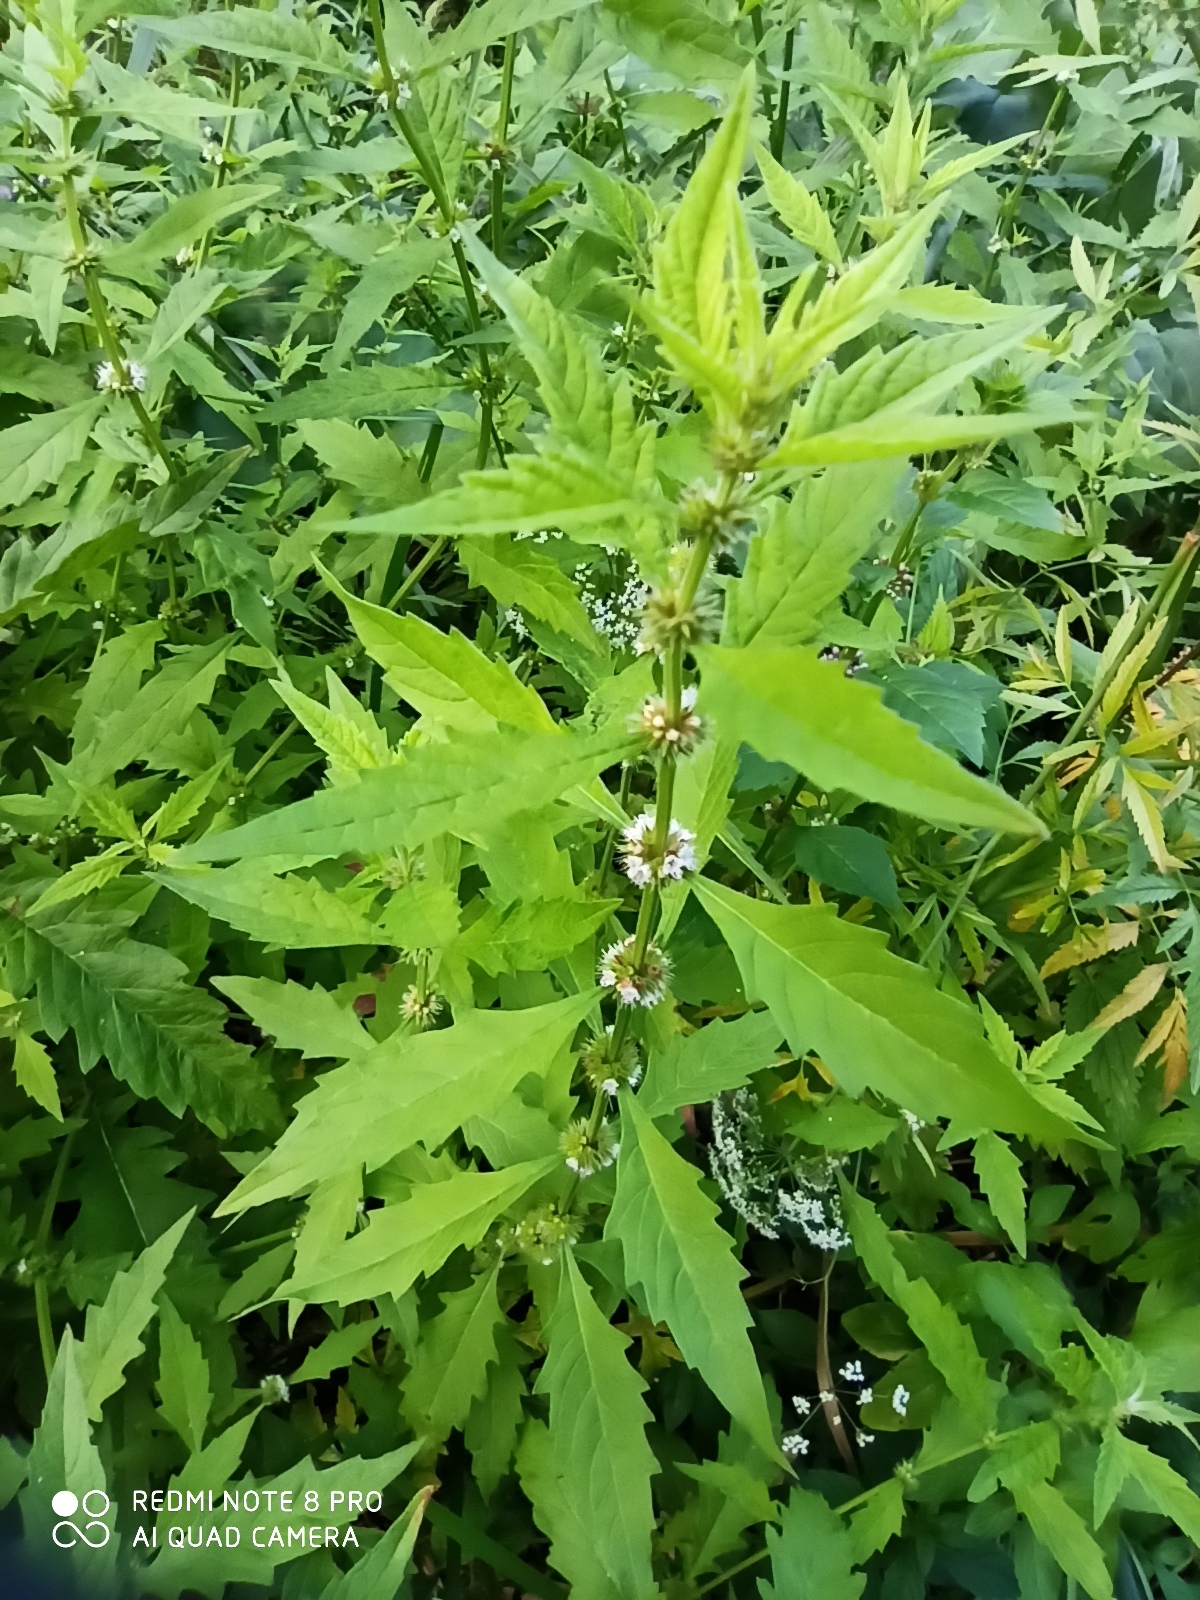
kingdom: Plantae
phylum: Tracheophyta
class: Magnoliopsida
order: Lamiales
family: Lamiaceae
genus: Lycopus
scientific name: Lycopus europaeus
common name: European bugleweed
